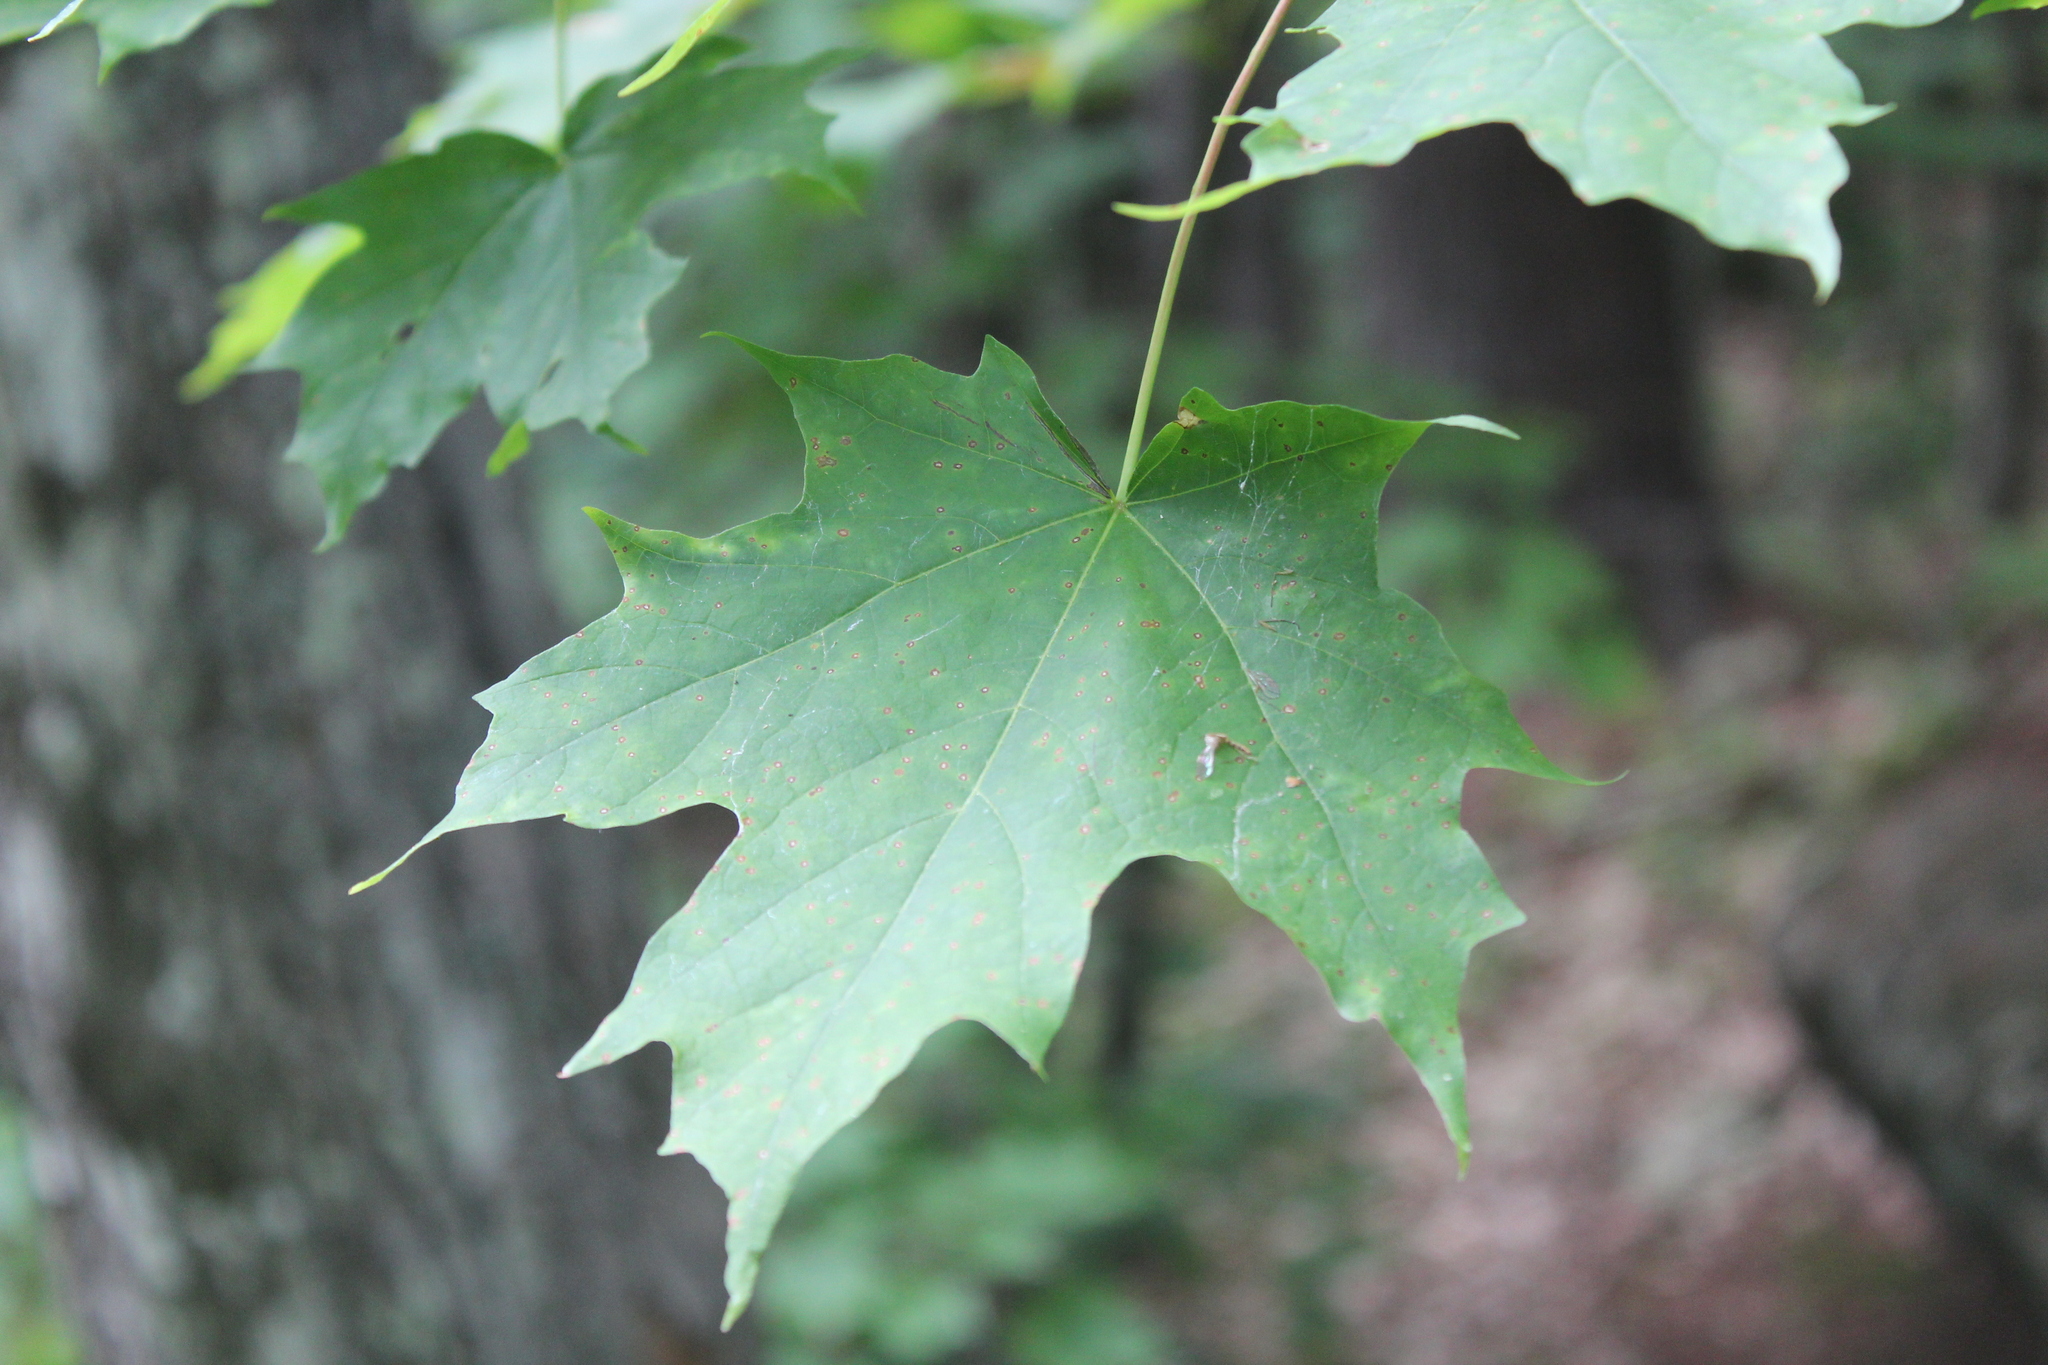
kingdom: Plantae
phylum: Tracheophyta
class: Magnoliopsida
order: Sapindales
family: Sapindaceae
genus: Acer
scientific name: Acer saccharum
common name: Sugar maple
